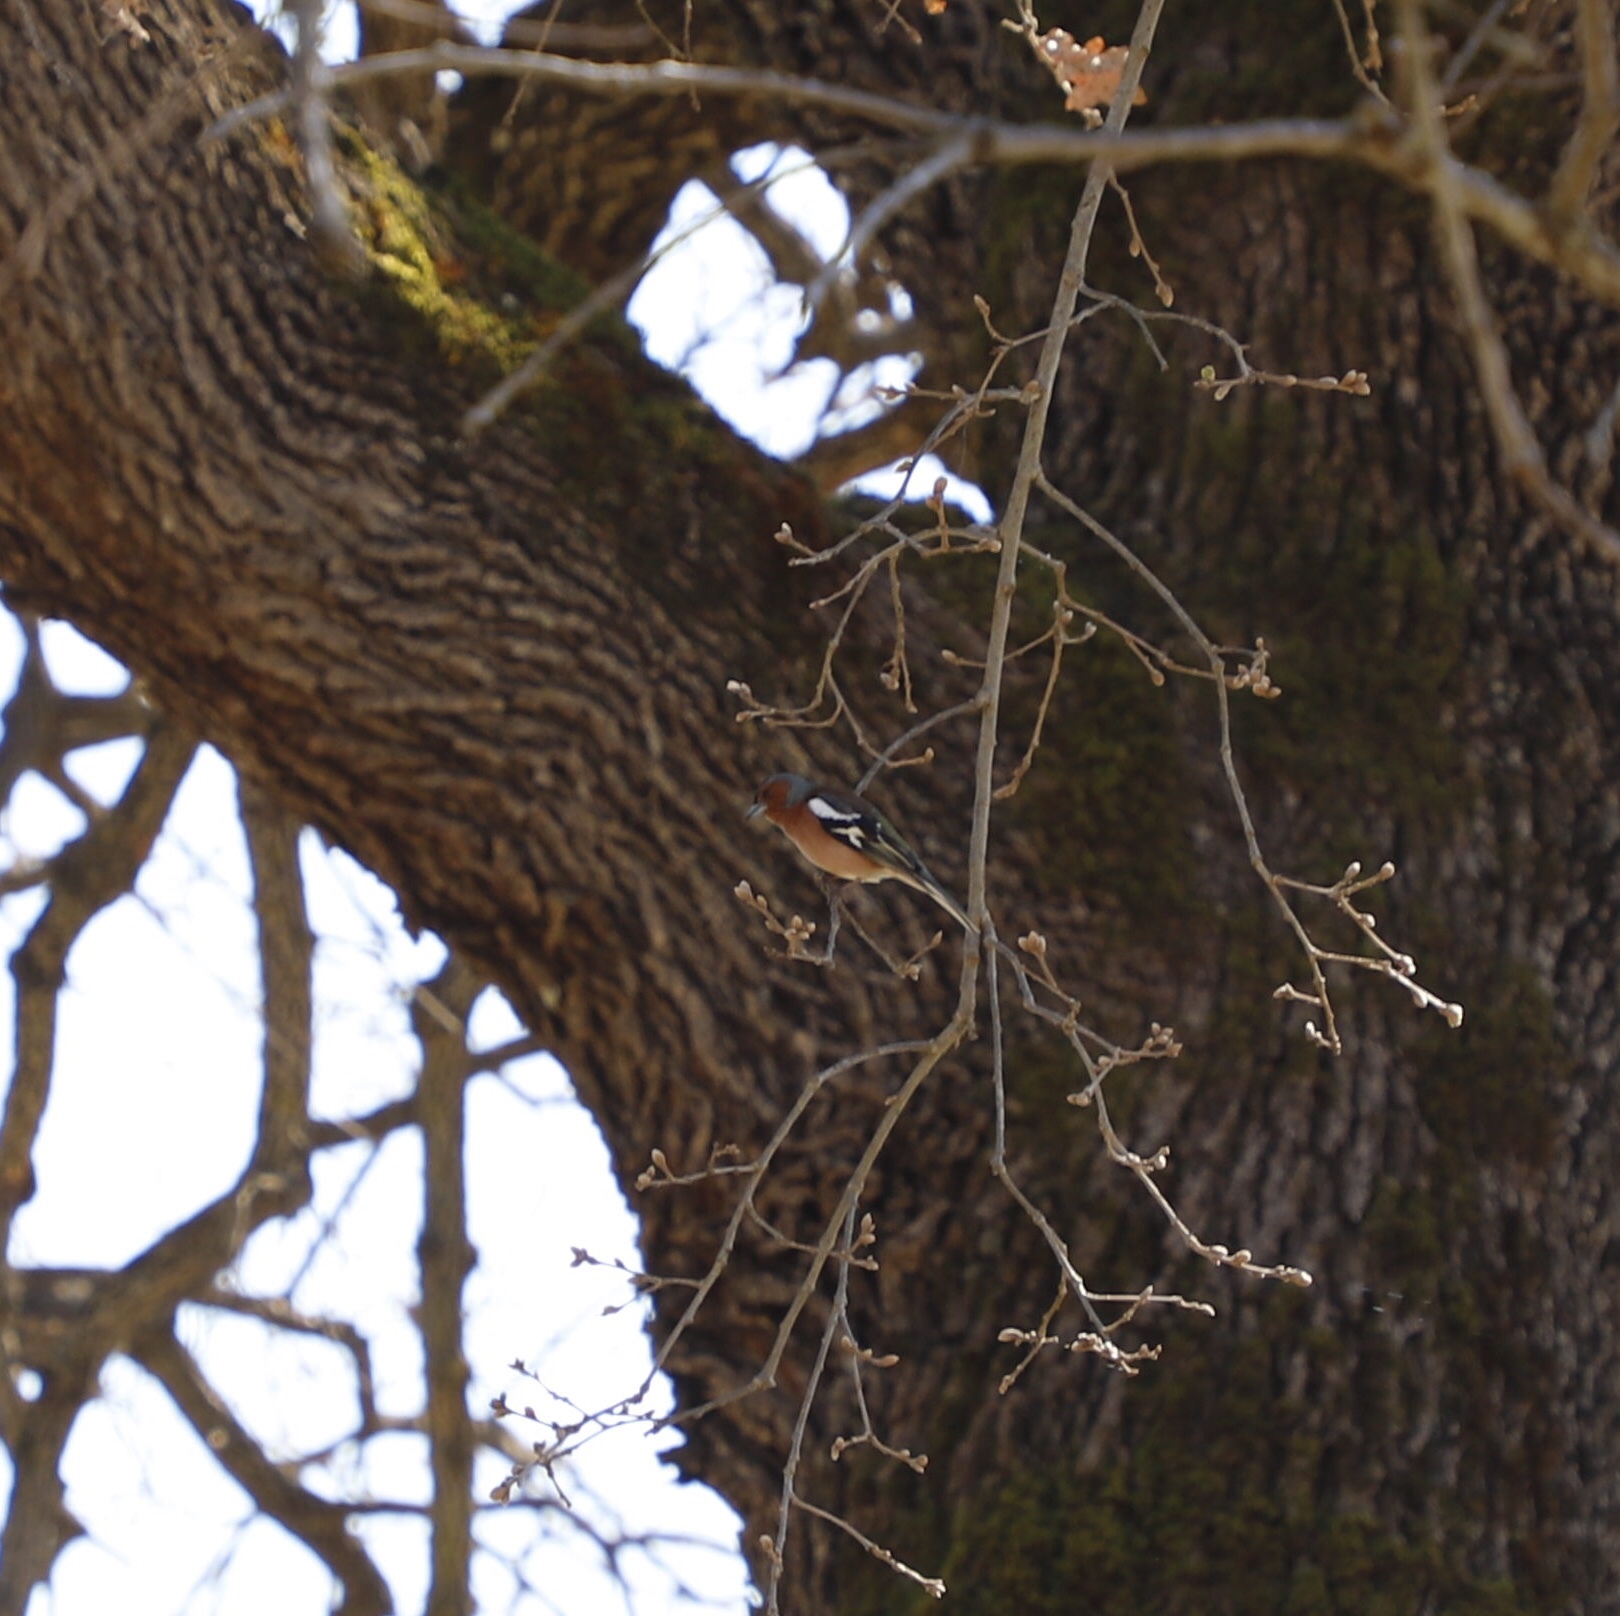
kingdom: Animalia
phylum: Chordata
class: Aves
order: Passeriformes
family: Fringillidae
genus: Fringilla
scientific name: Fringilla coelebs
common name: Common chaffinch
